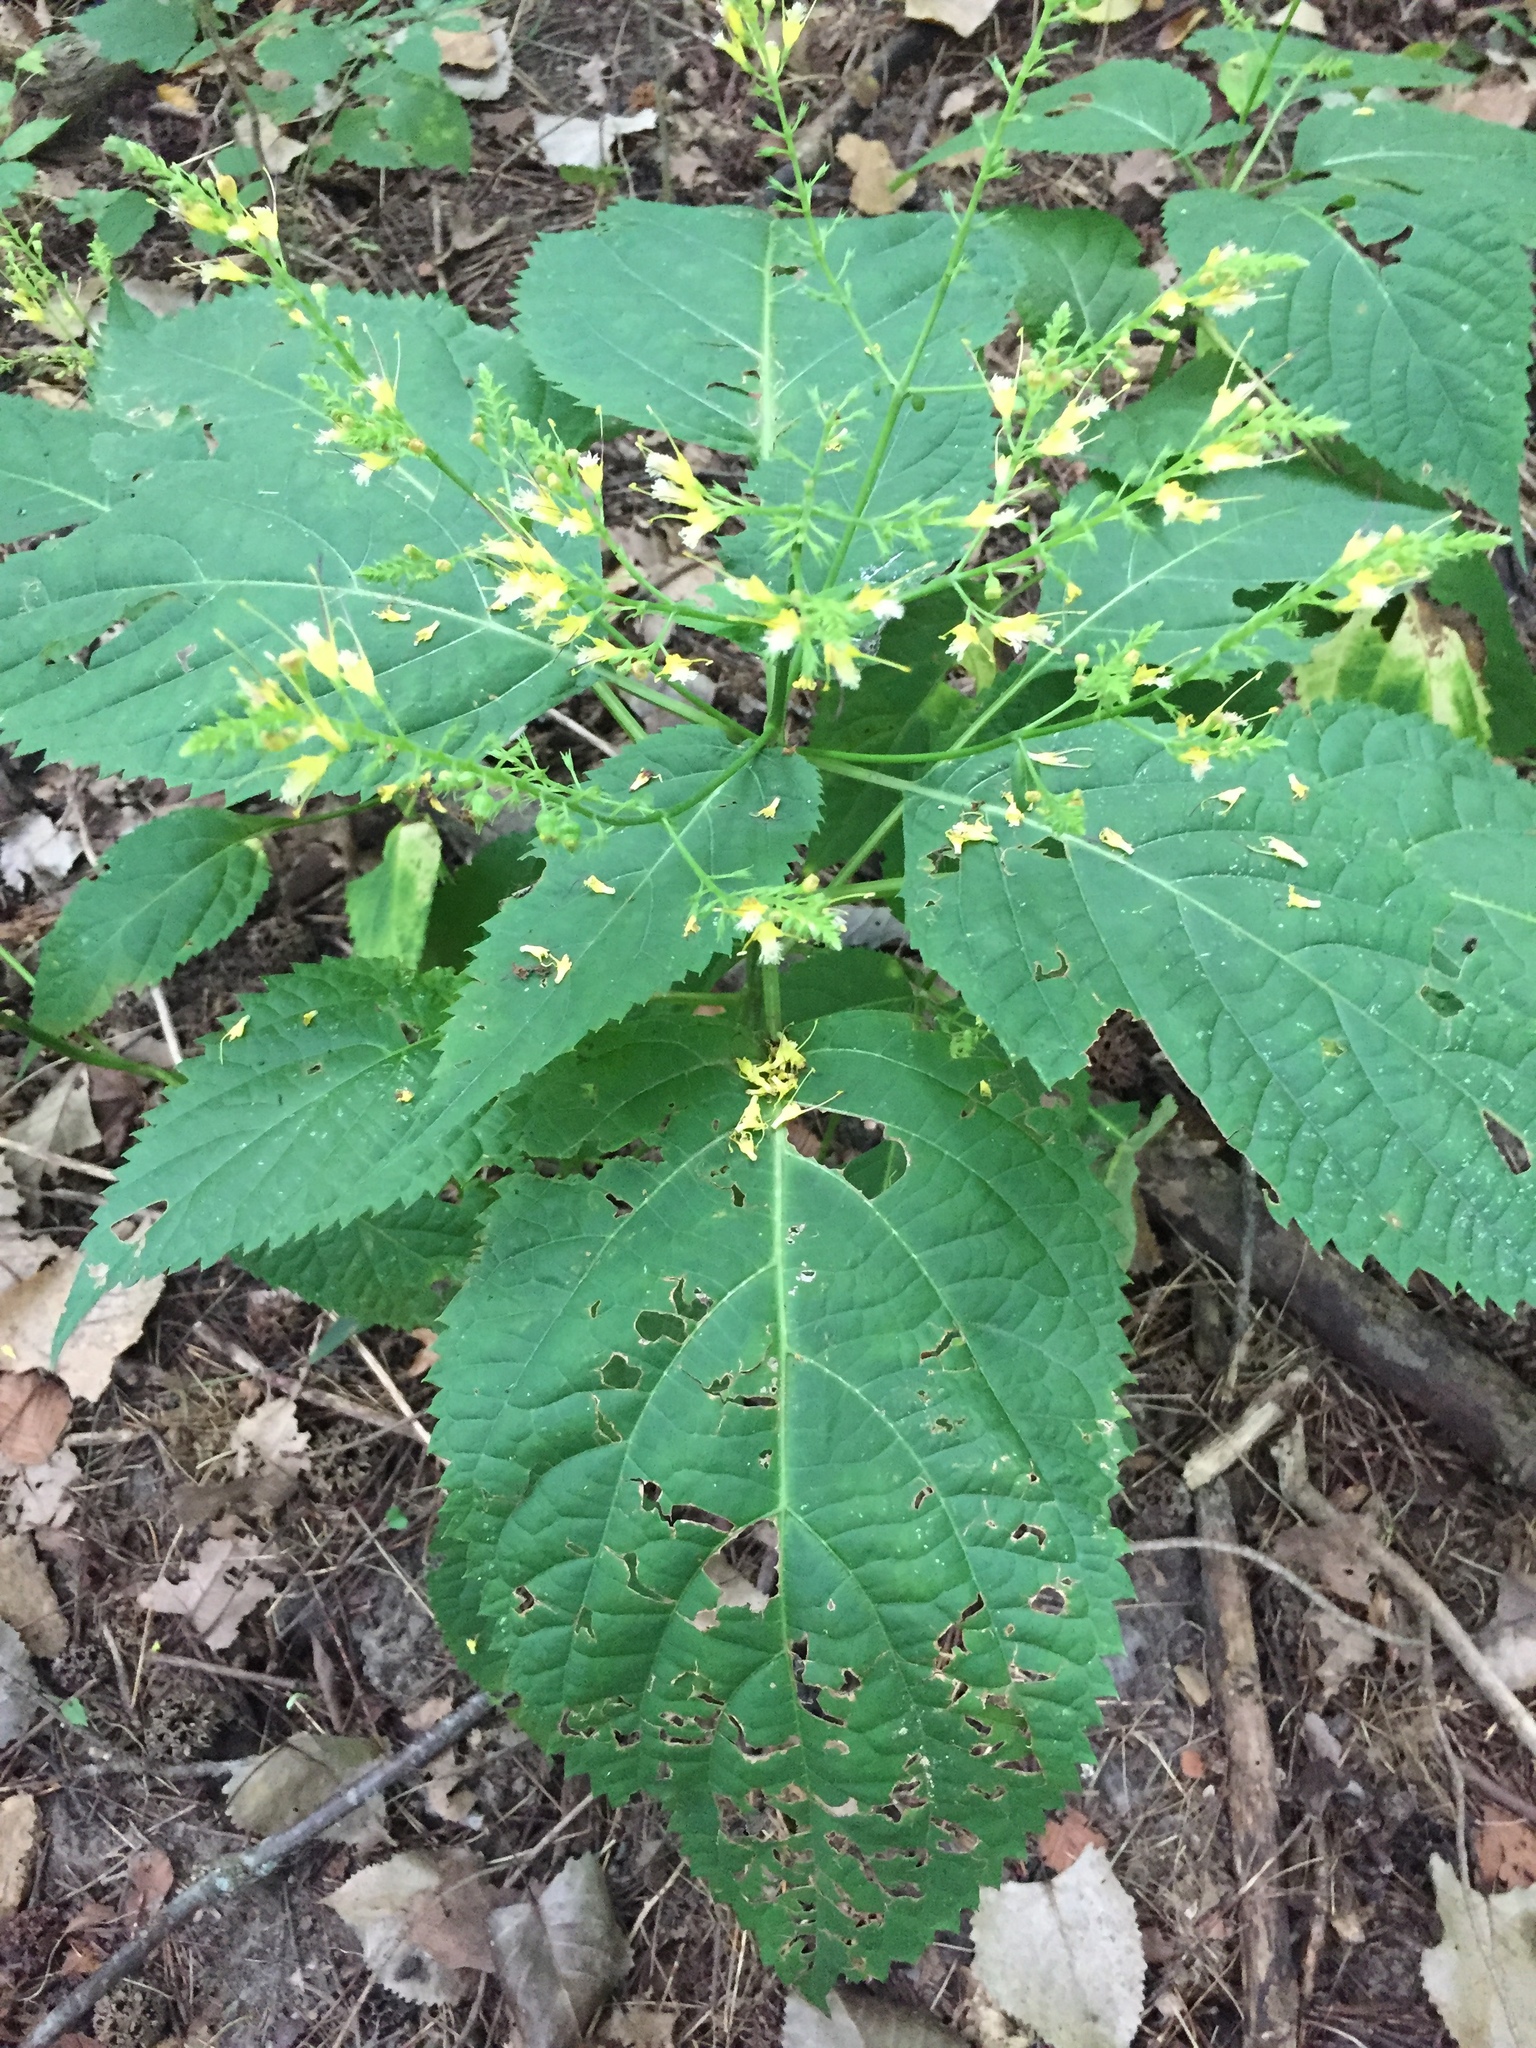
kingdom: Plantae
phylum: Tracheophyta
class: Magnoliopsida
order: Lamiales
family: Lamiaceae
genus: Collinsonia
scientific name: Collinsonia canadensis
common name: Northern horsebalm
